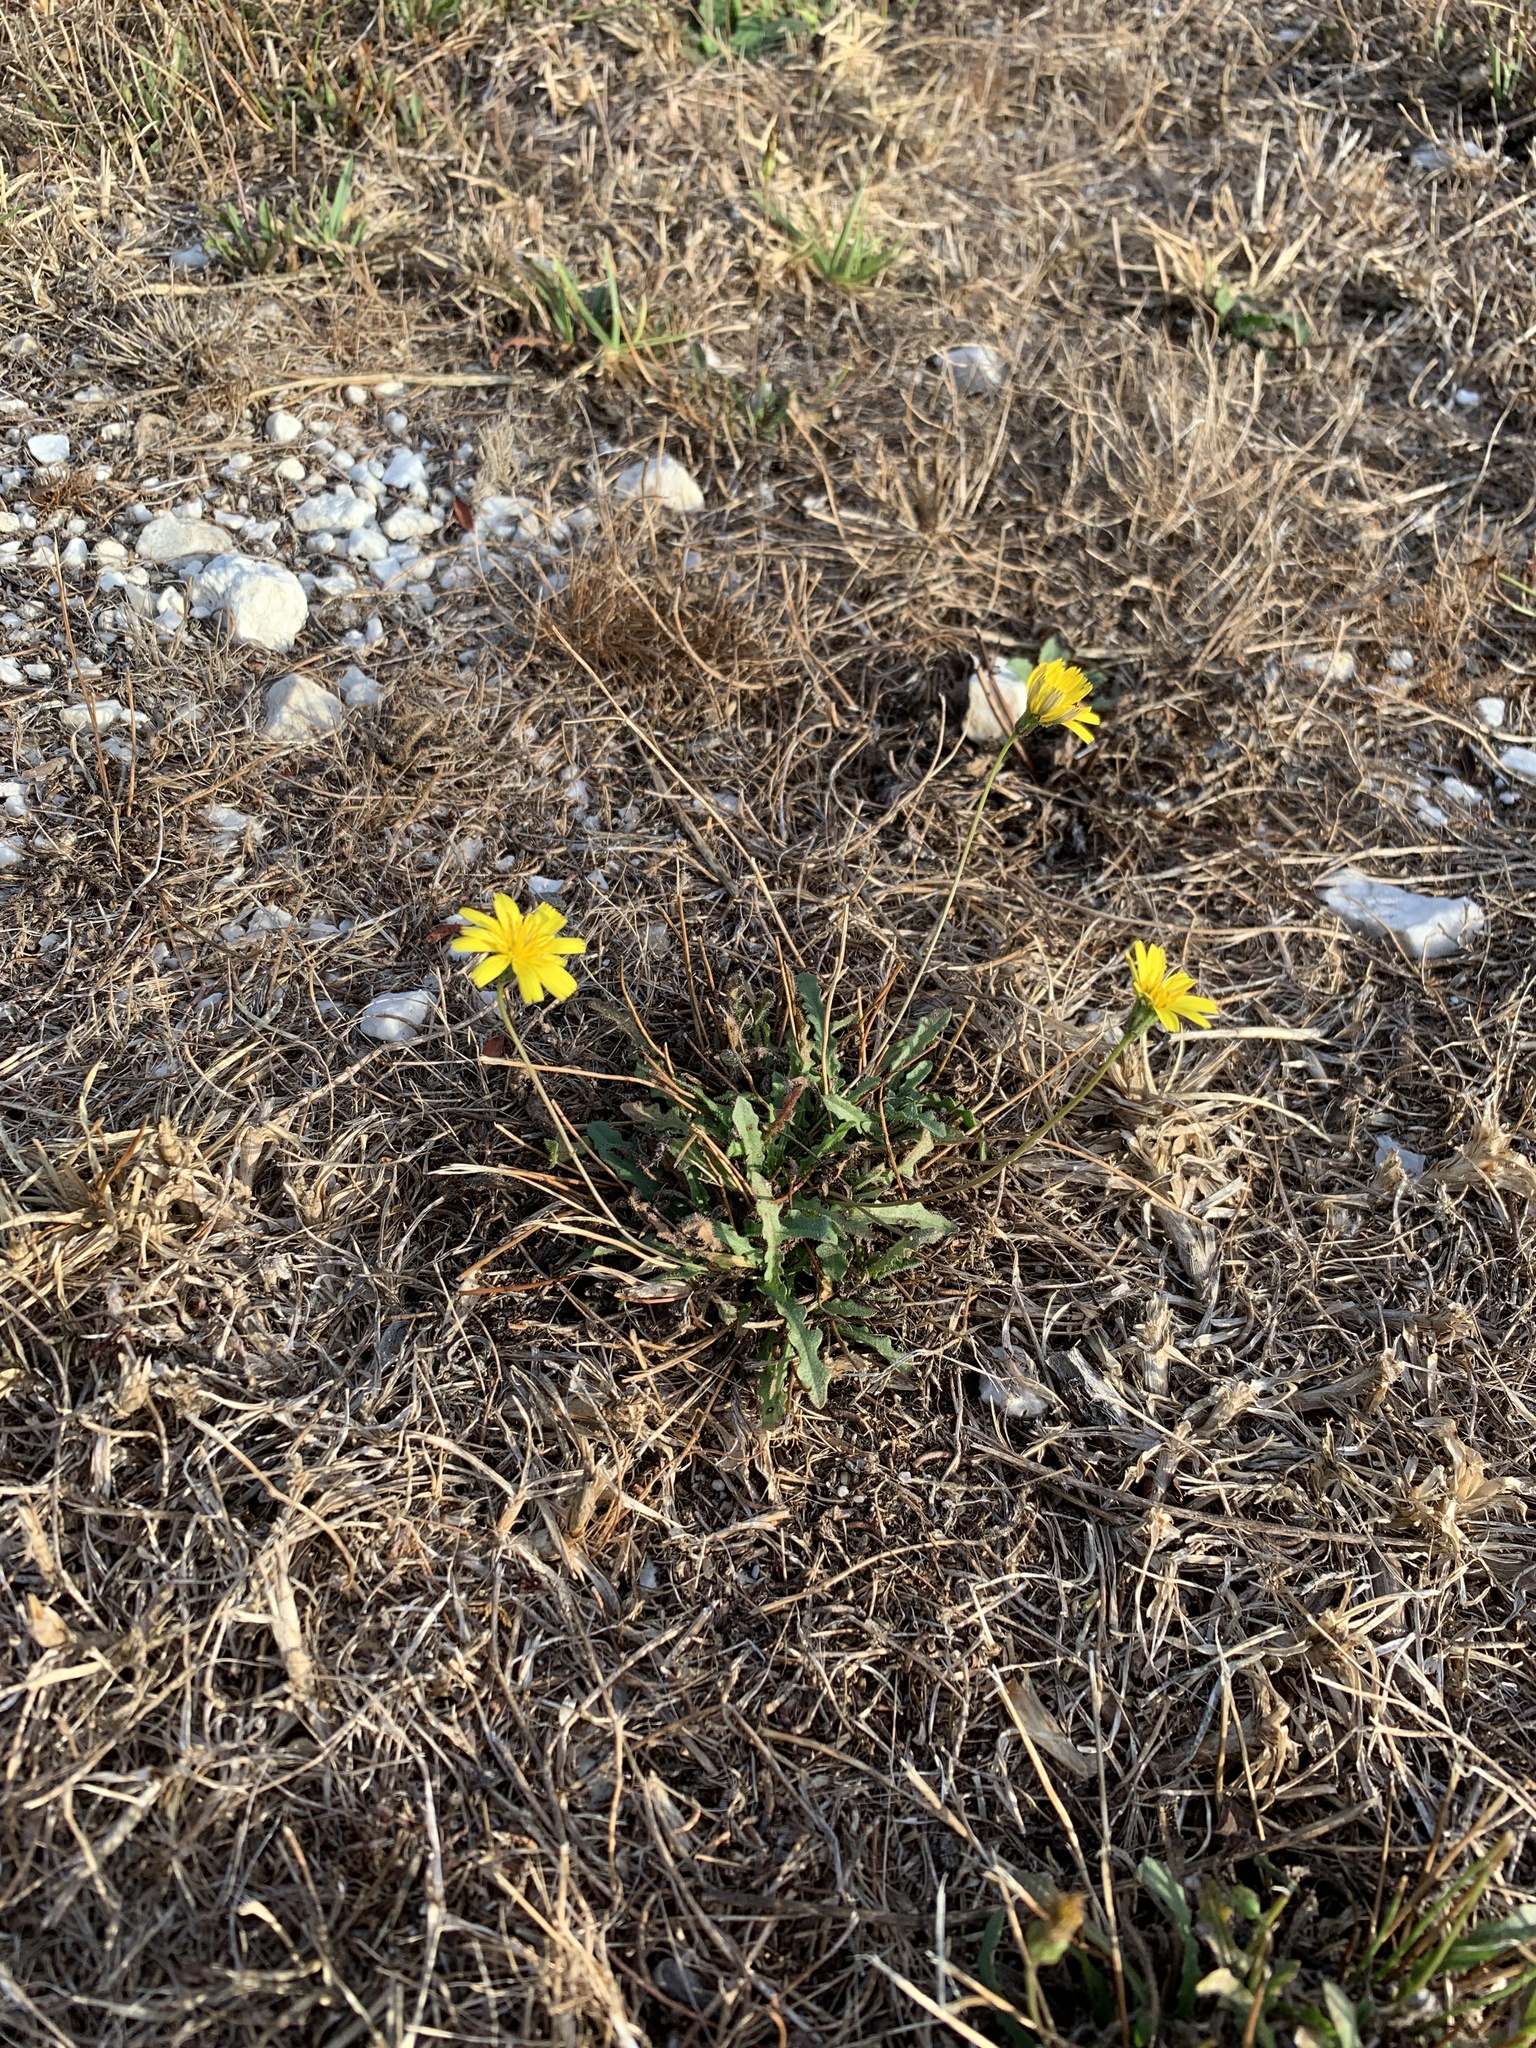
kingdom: Plantae
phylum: Tracheophyta
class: Magnoliopsida
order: Asterales
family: Asteraceae
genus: Hypochaeris
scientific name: Hypochaeris radicata
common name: Flatweed
